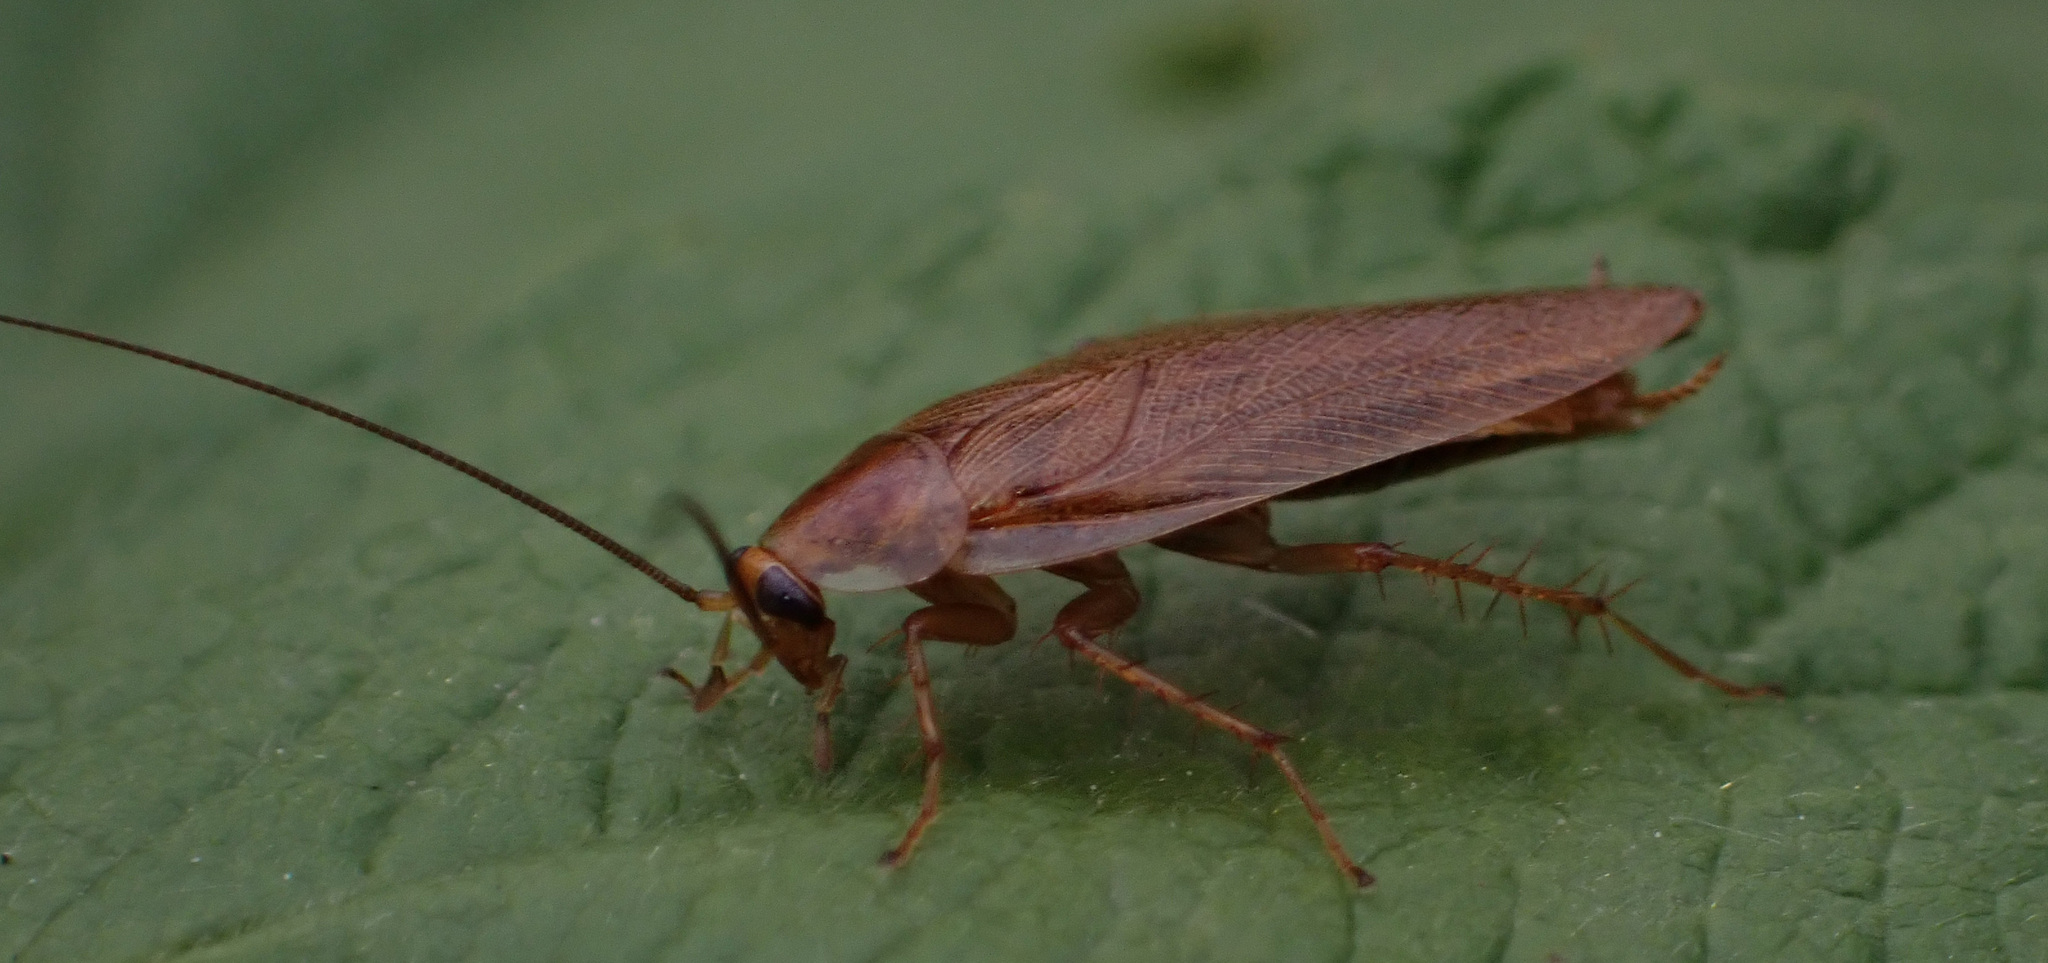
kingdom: Animalia
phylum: Arthropoda
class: Insecta
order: Blattodea
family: Ectobiidae
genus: Ectobius
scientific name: Ectobius vittiventris
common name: Garden cockroach
